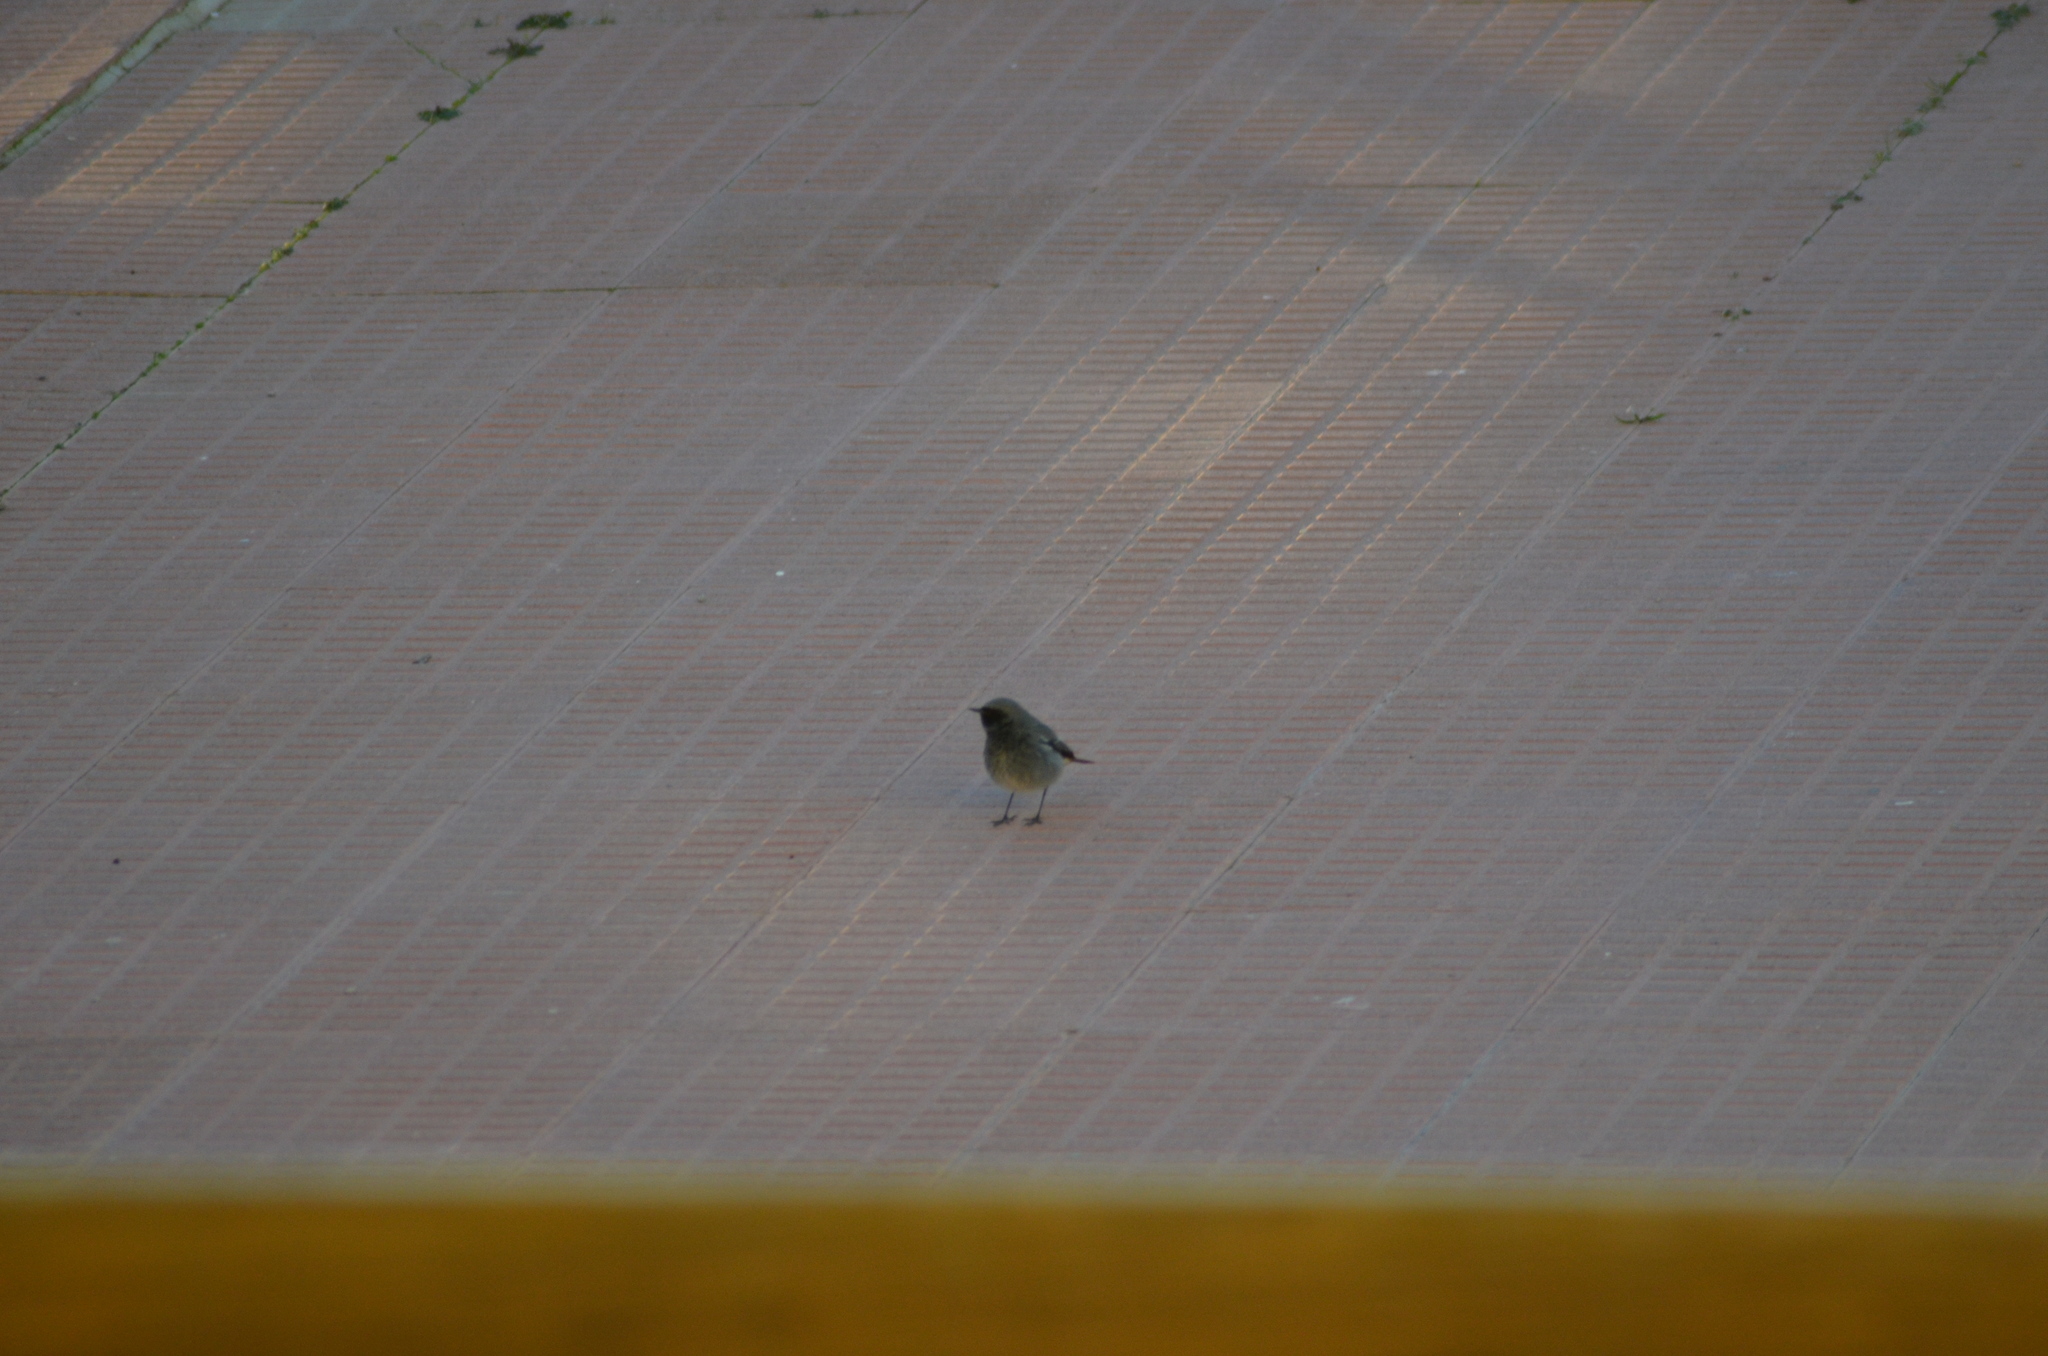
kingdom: Animalia
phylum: Chordata
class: Aves
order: Passeriformes
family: Muscicapidae
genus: Phoenicurus
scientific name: Phoenicurus ochruros
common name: Black redstart
